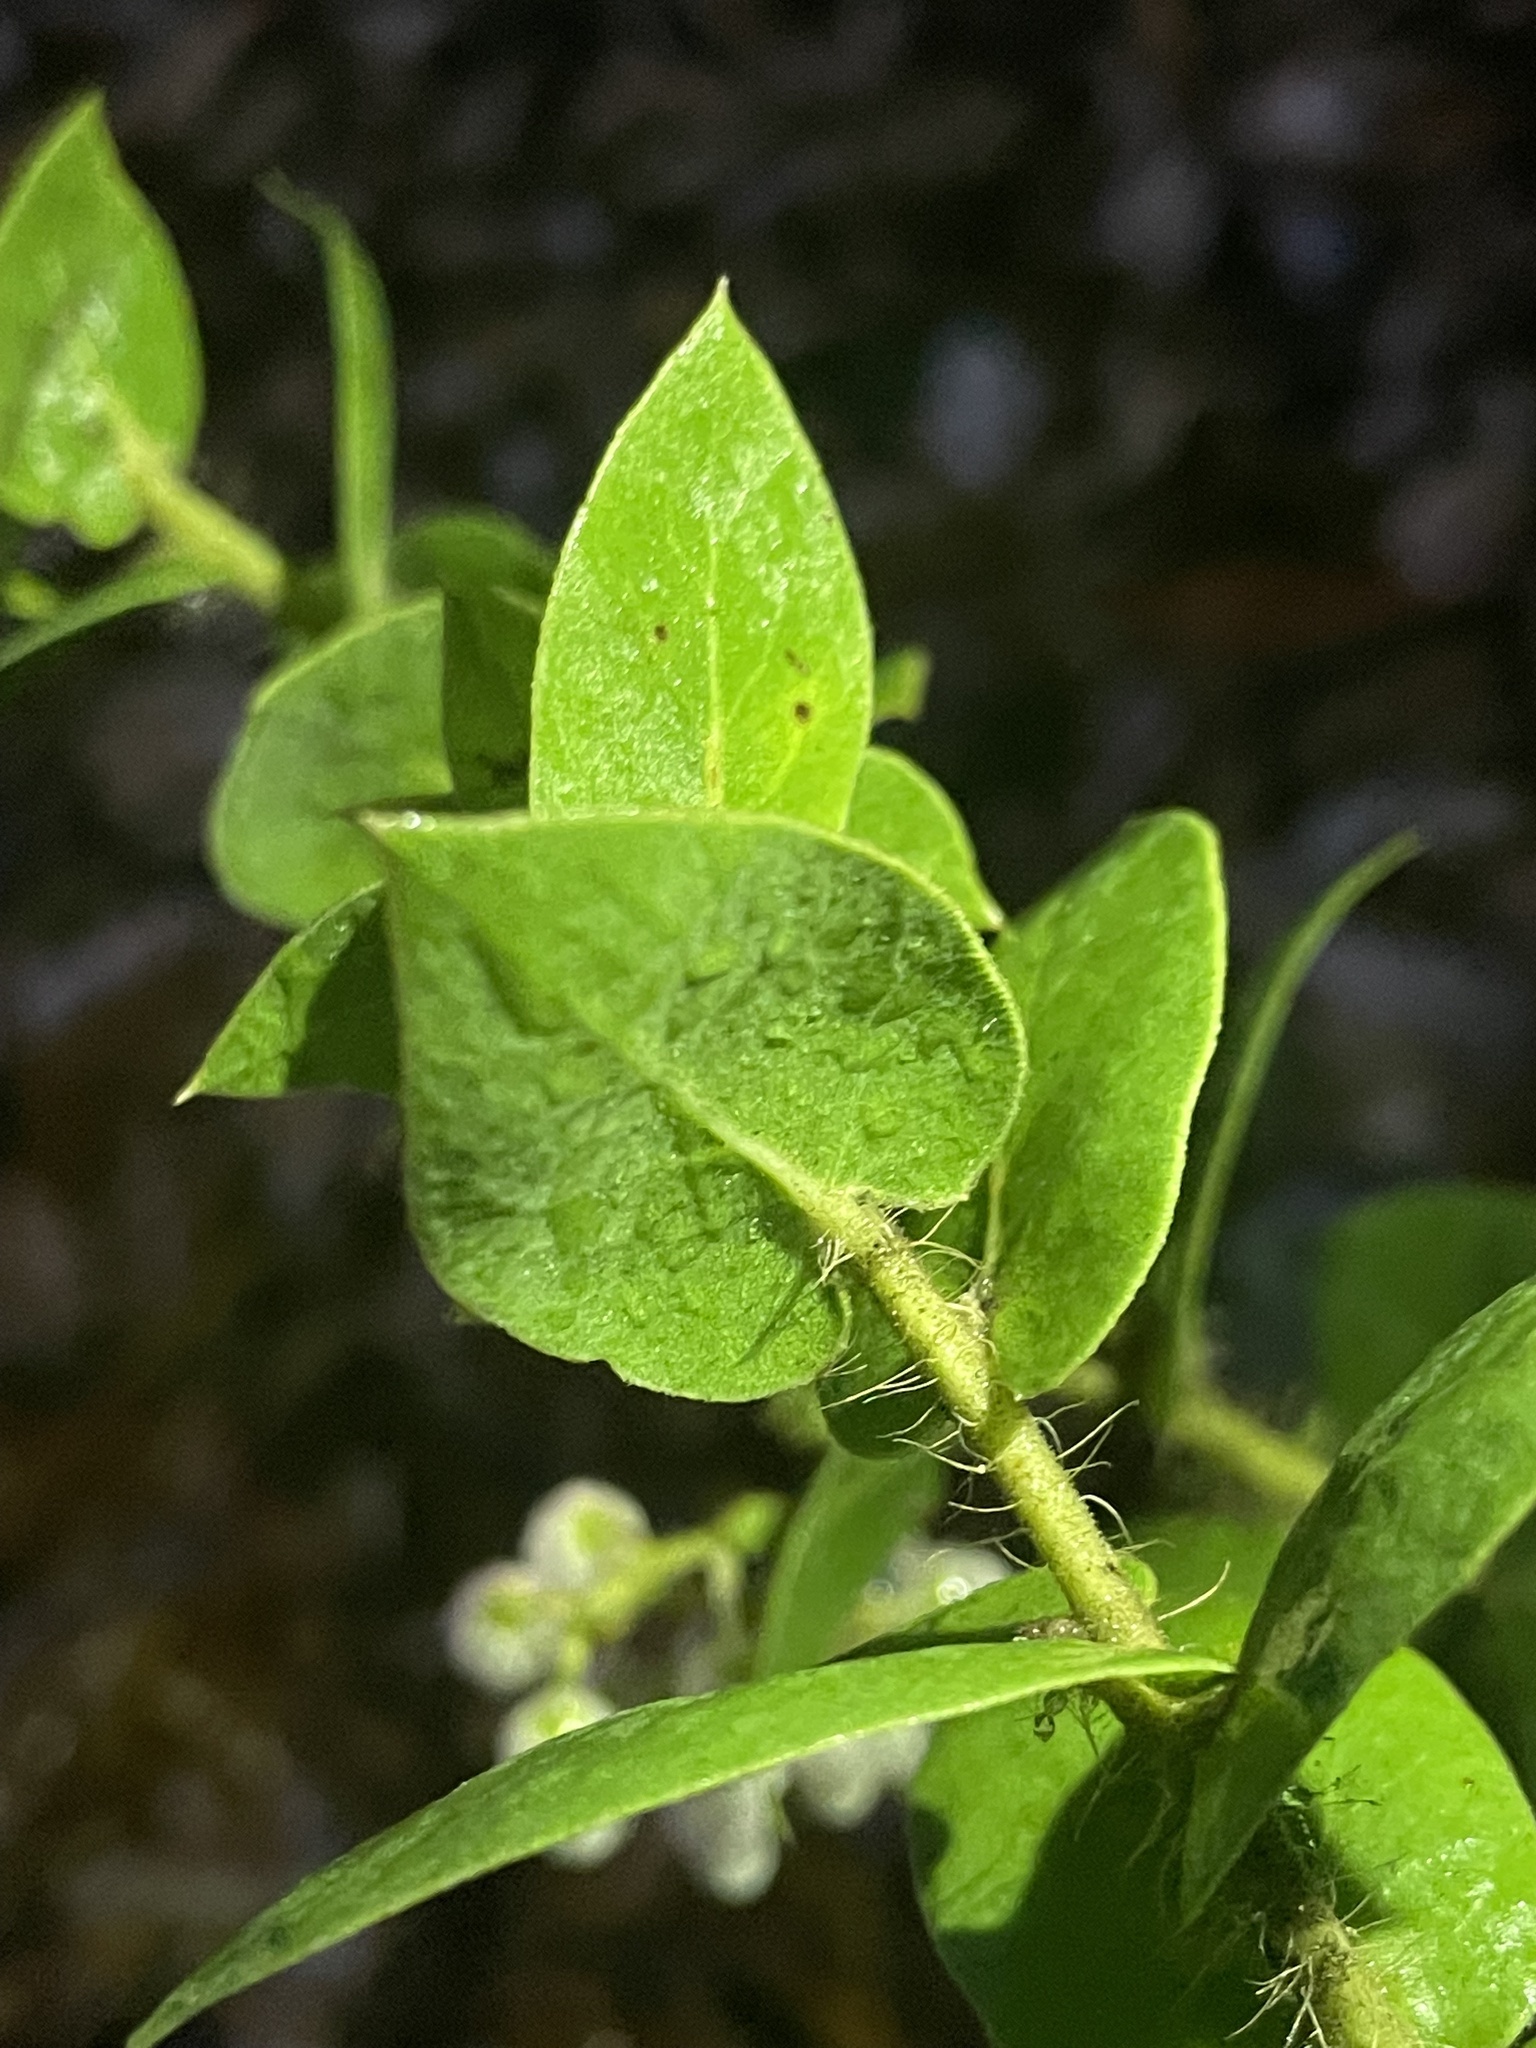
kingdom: Plantae
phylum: Tracheophyta
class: Magnoliopsida
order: Ericales
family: Ericaceae
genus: Arctostaphylos
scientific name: Arctostaphylos pechoensis
